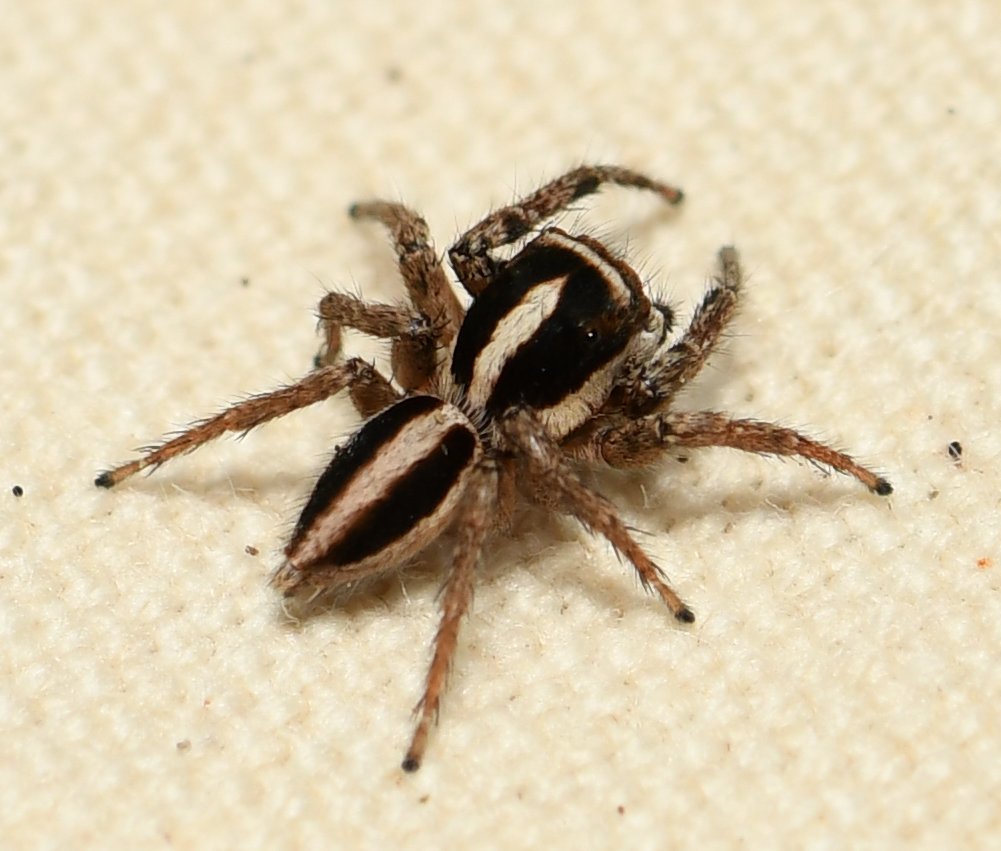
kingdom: Animalia
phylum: Arthropoda
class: Arachnida
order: Araneae
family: Salticidae
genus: Leptofreya
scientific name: Leptofreya ambigua
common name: Jumping spider
